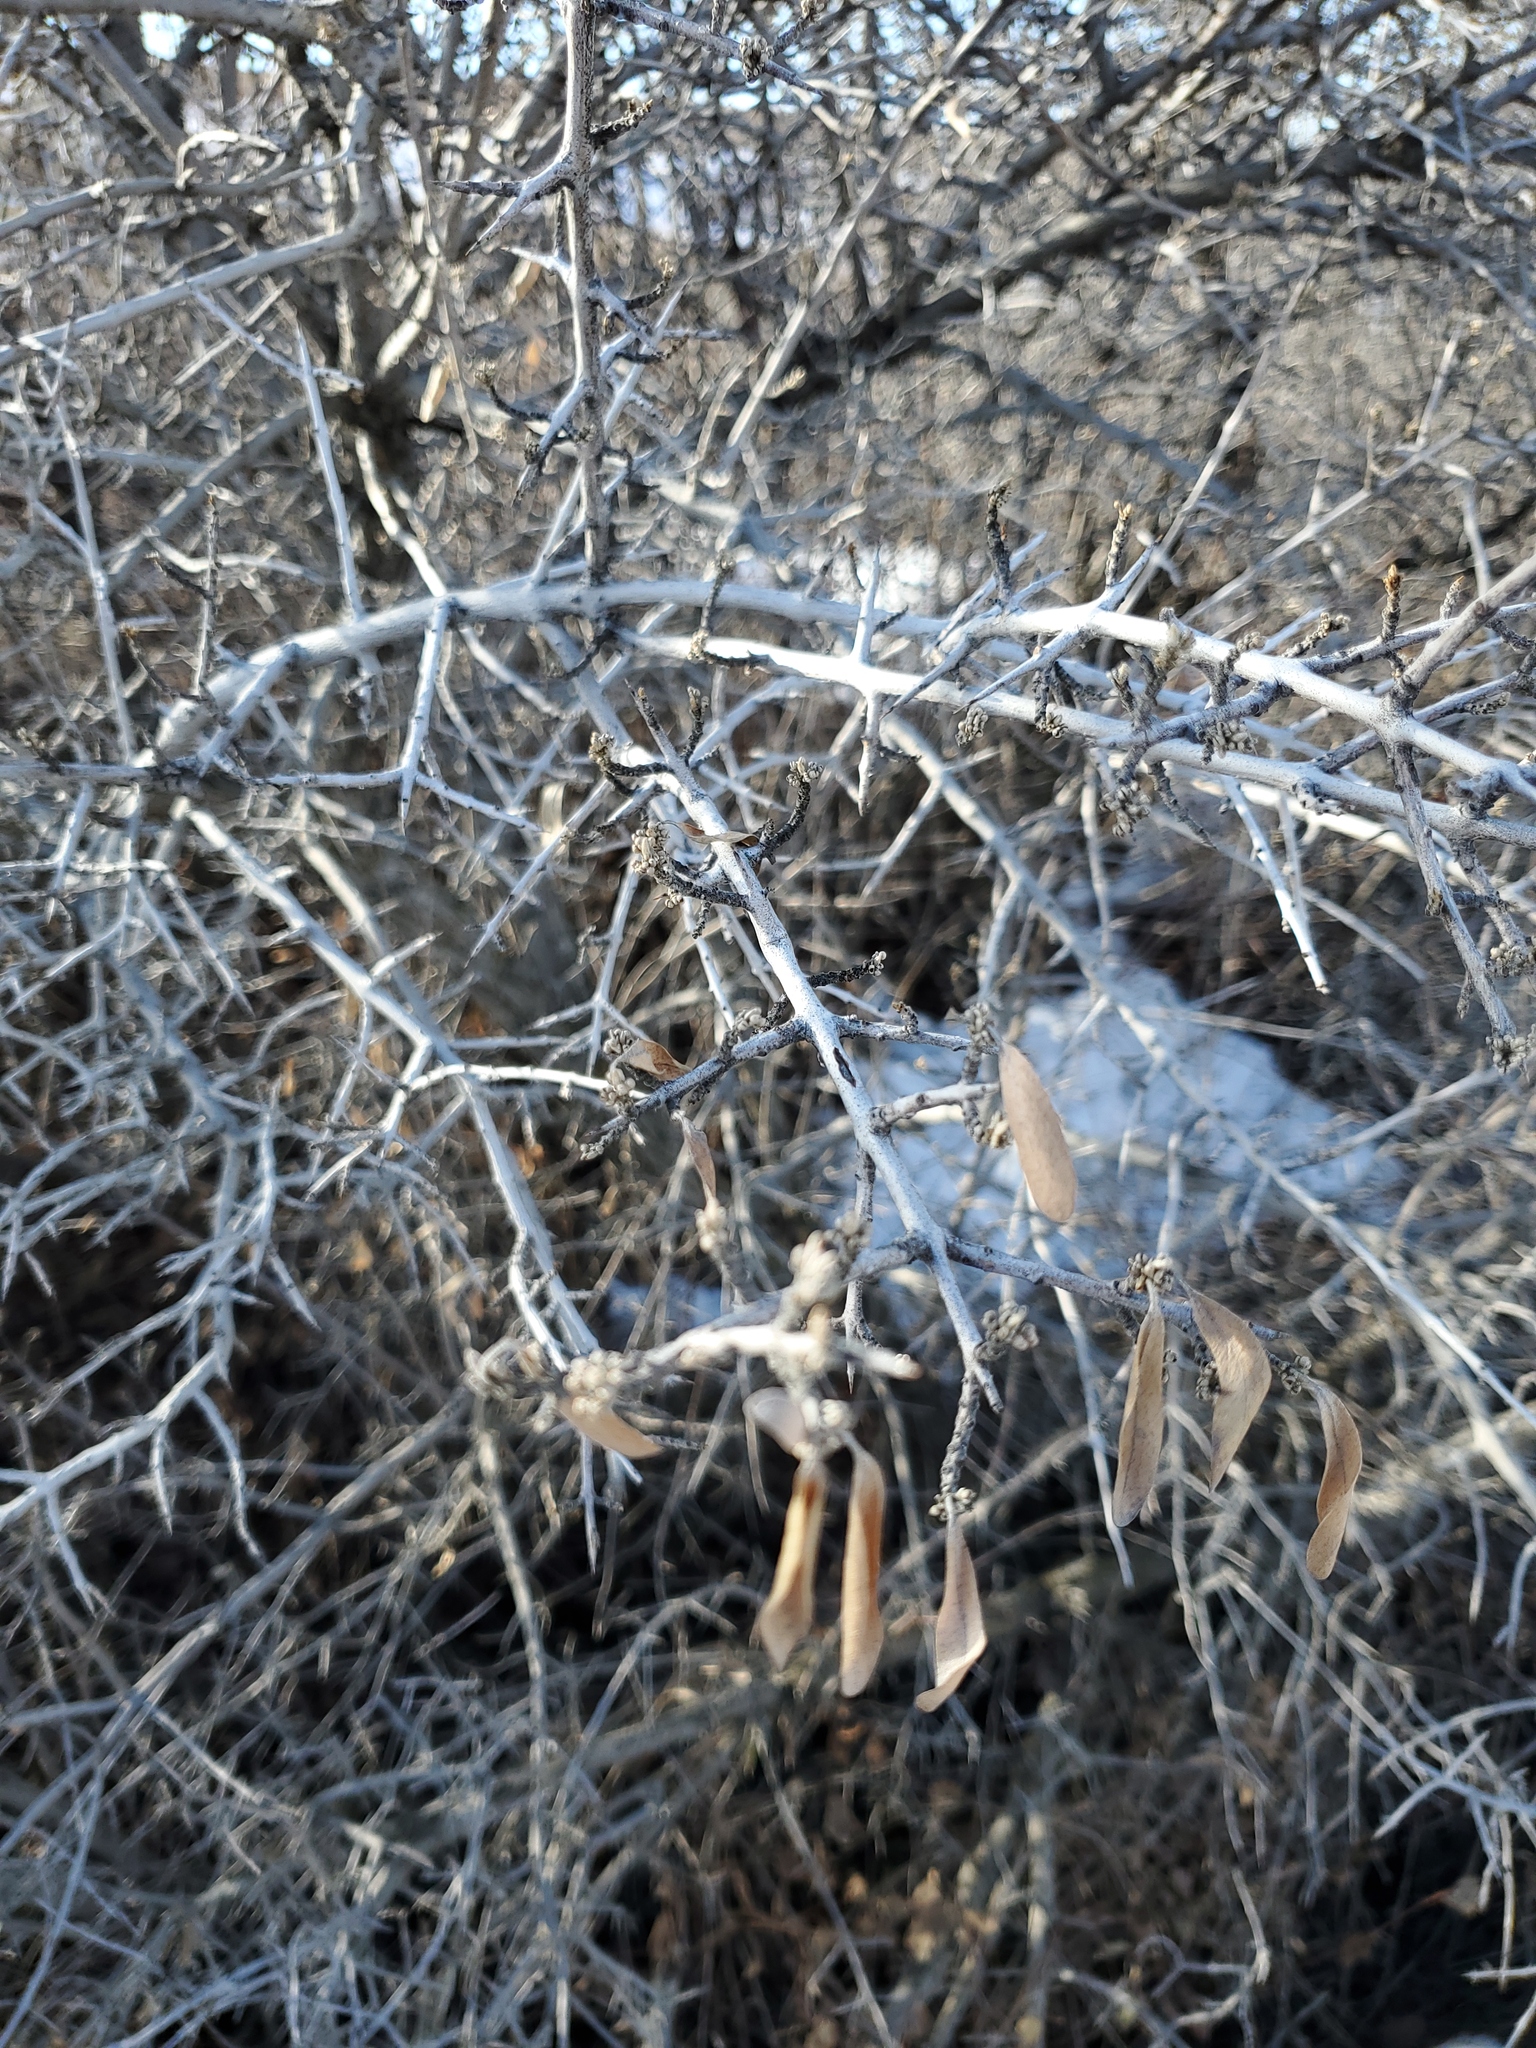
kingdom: Plantae
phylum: Tracheophyta
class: Magnoliopsida
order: Rosales
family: Elaeagnaceae
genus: Shepherdia
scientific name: Shepherdia argentea
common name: Silver buffaloberry
